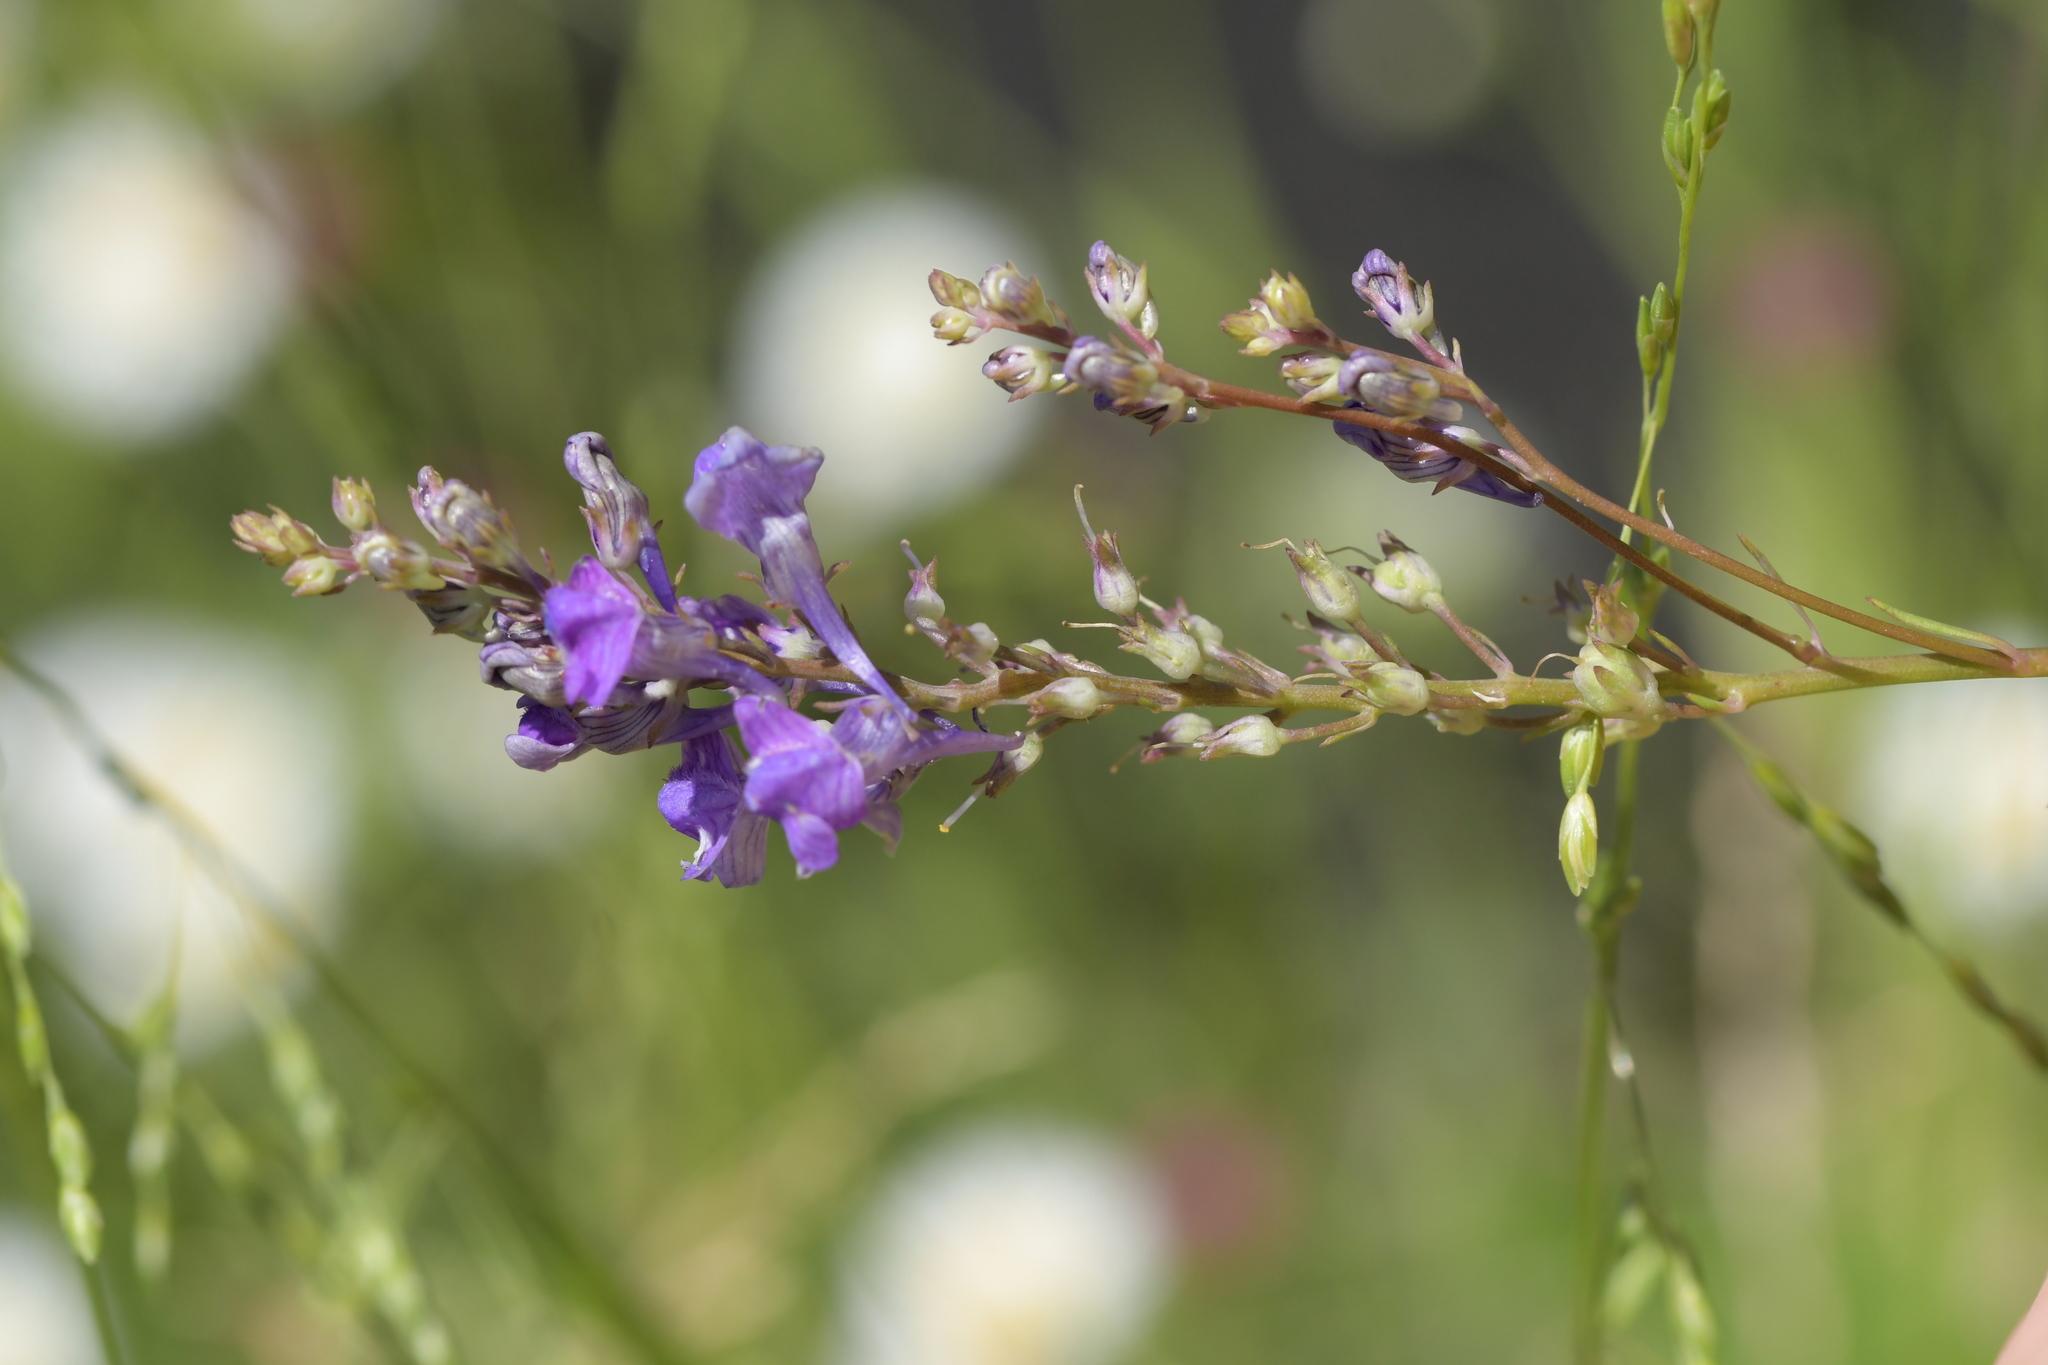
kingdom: Plantae
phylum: Tracheophyta
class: Magnoliopsida
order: Lamiales
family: Plantaginaceae
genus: Linaria
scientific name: Linaria purpurea
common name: Purple toadflax
